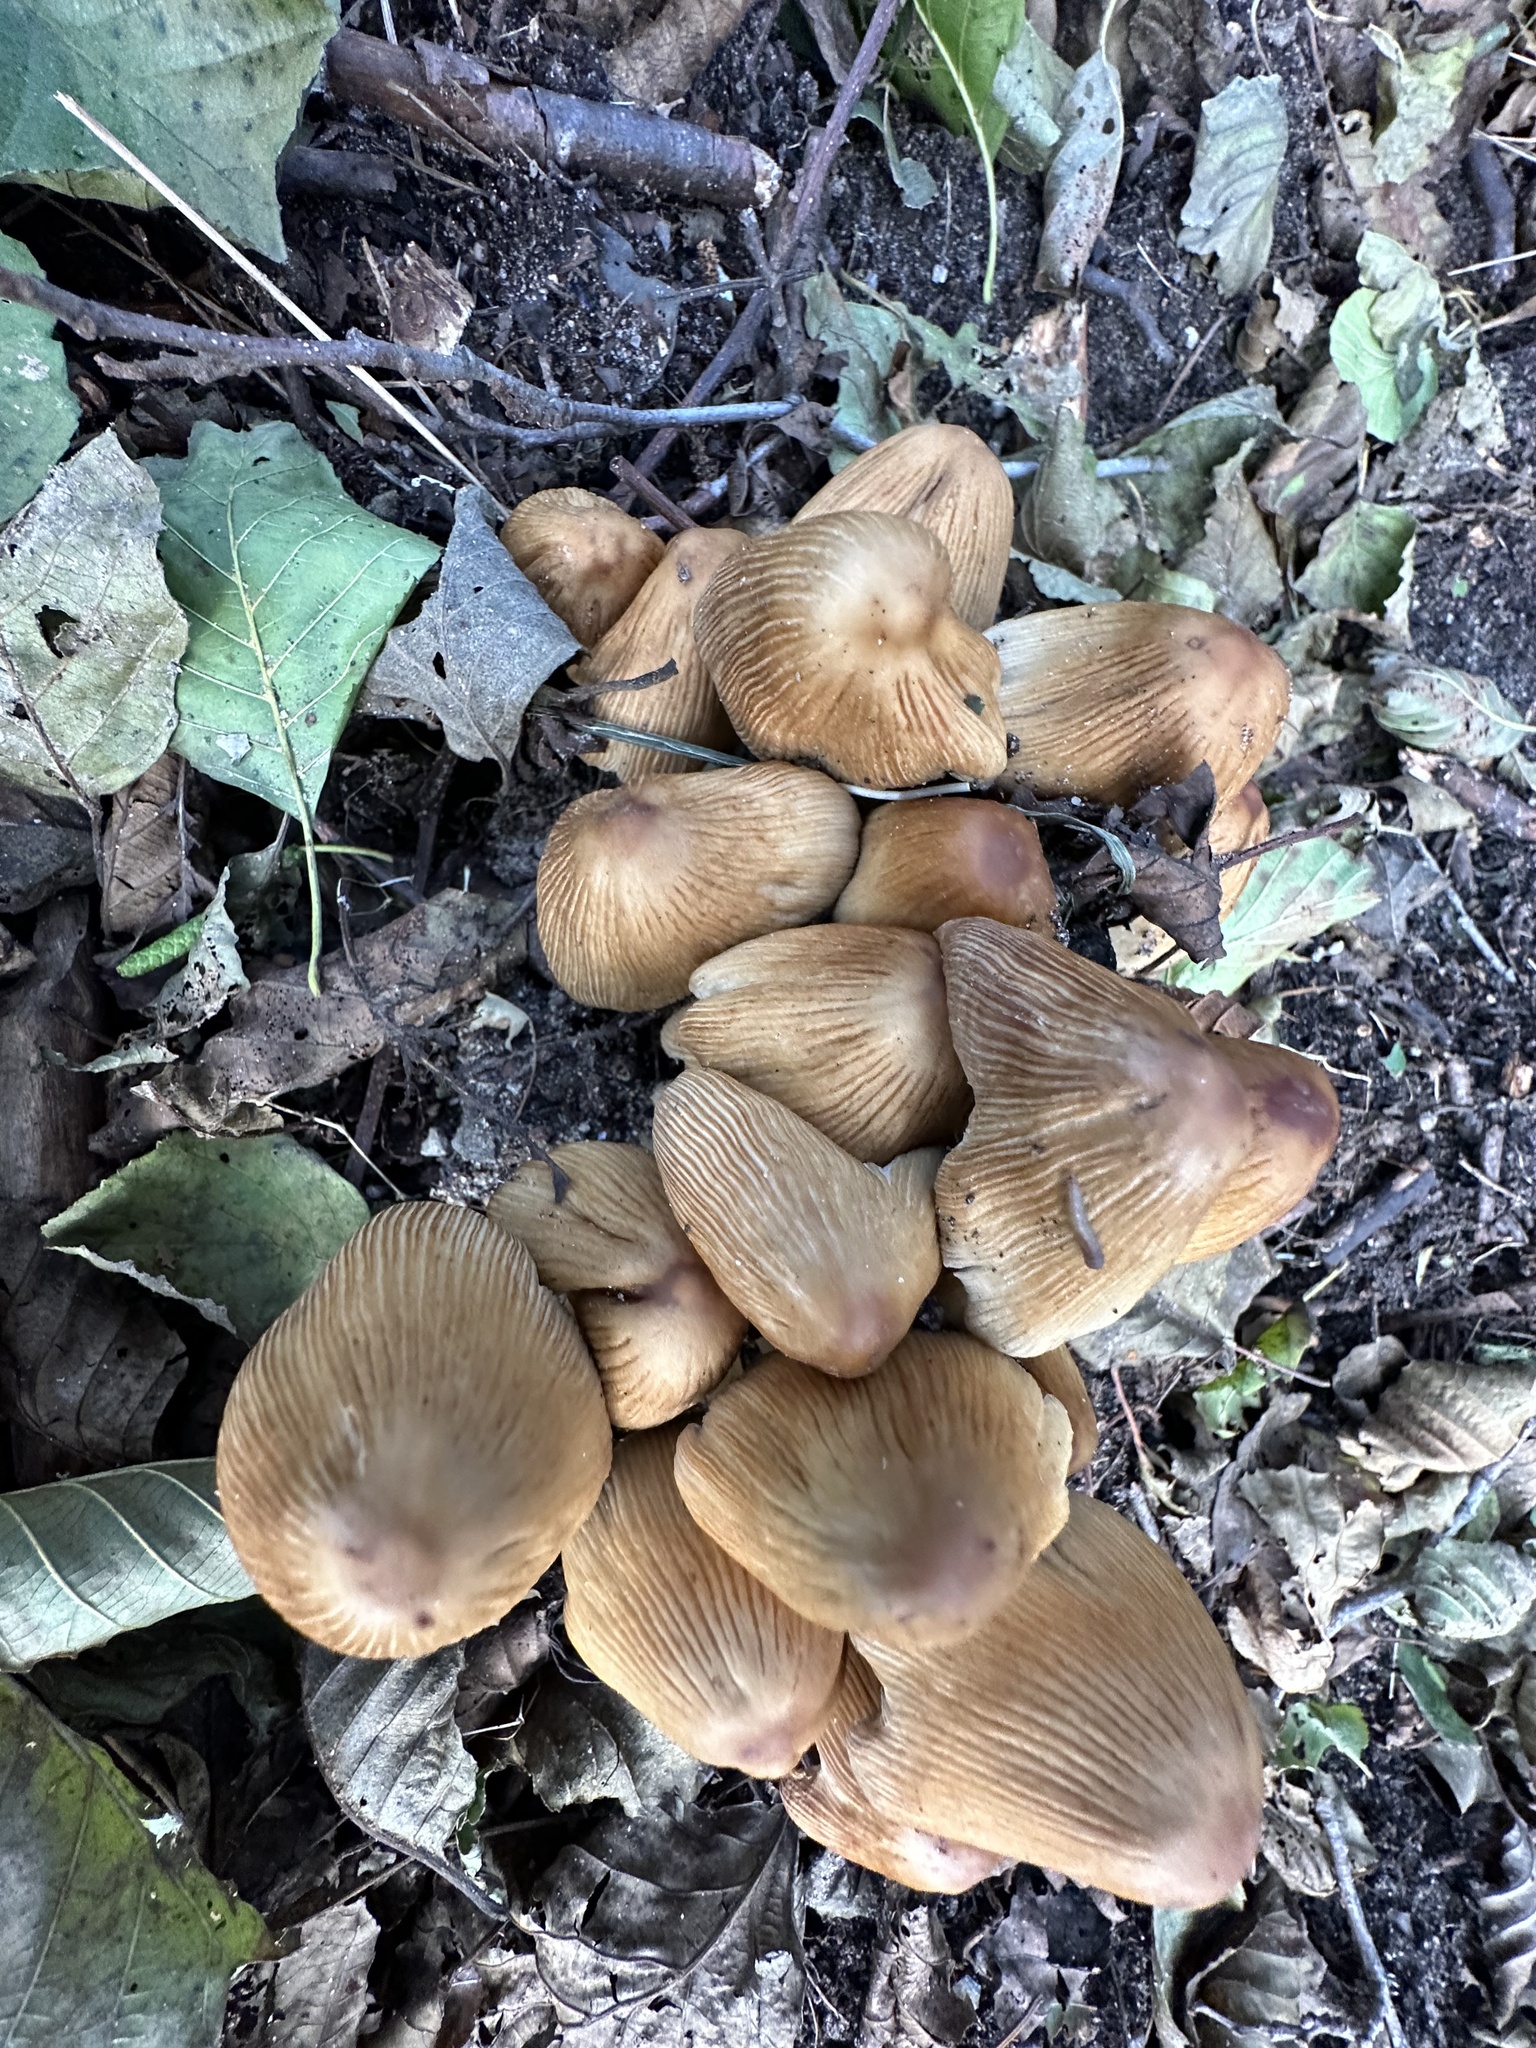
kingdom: Fungi
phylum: Basidiomycota
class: Agaricomycetes
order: Agaricales
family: Psathyrellaceae
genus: Coprinellus
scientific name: Coprinellus micaceus
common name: Glistening ink-cap
